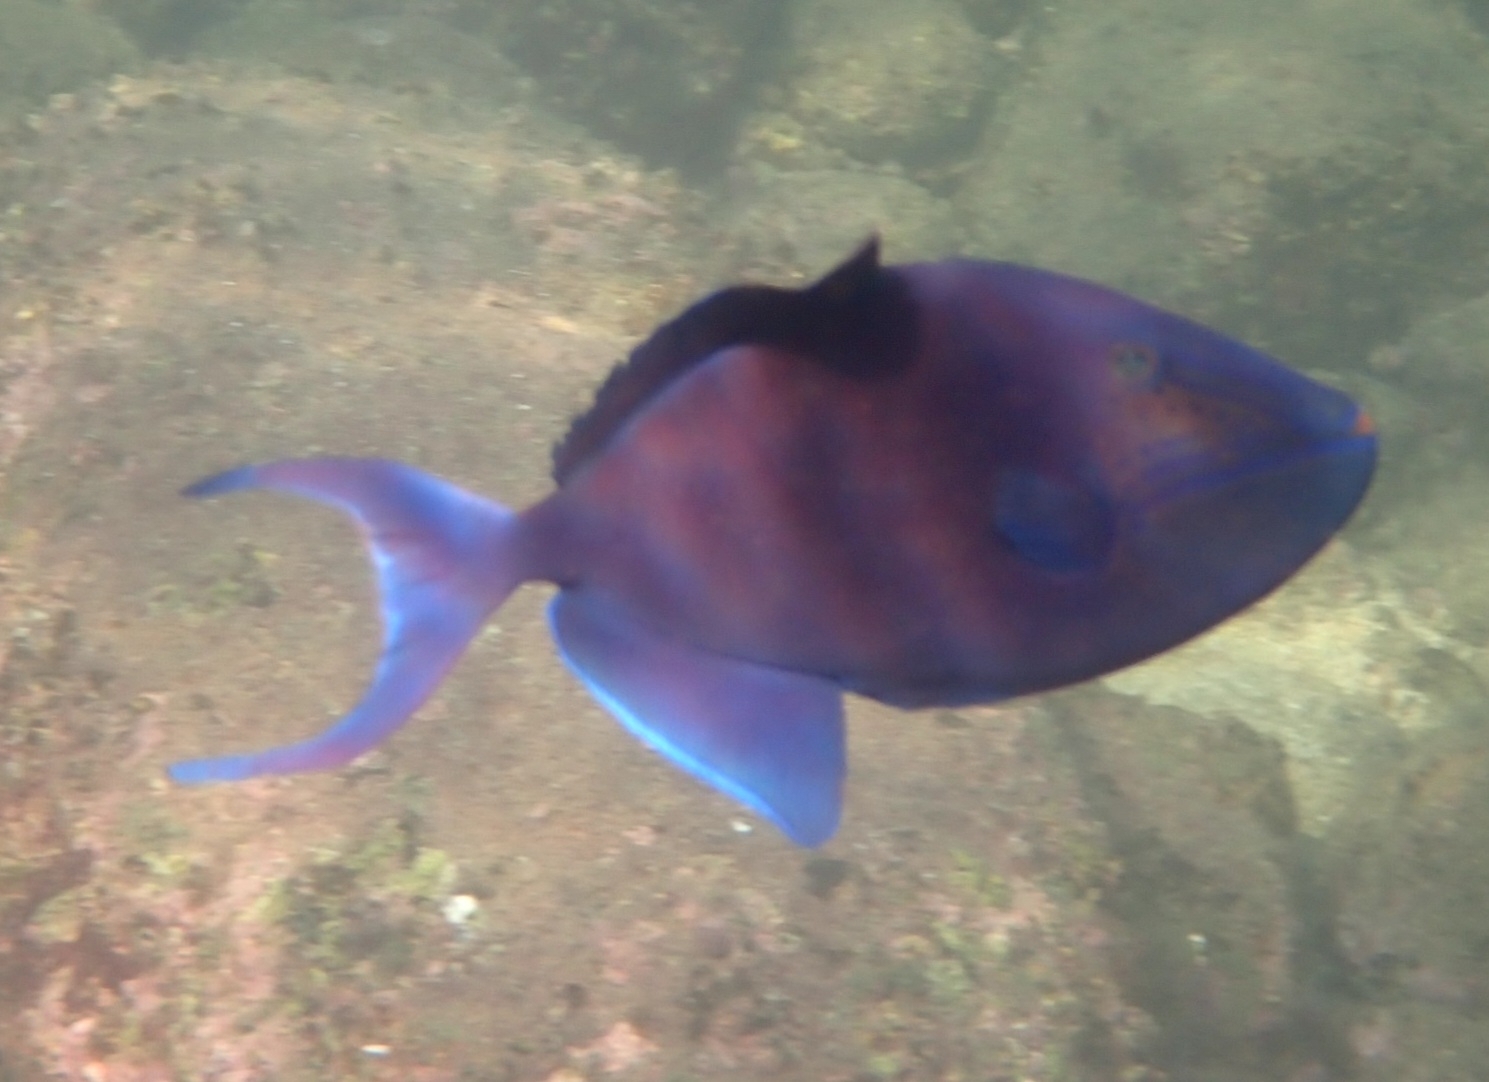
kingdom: Animalia
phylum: Chordata
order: Tetraodontiformes
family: Balistidae
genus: Odonus
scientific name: Odonus niger
